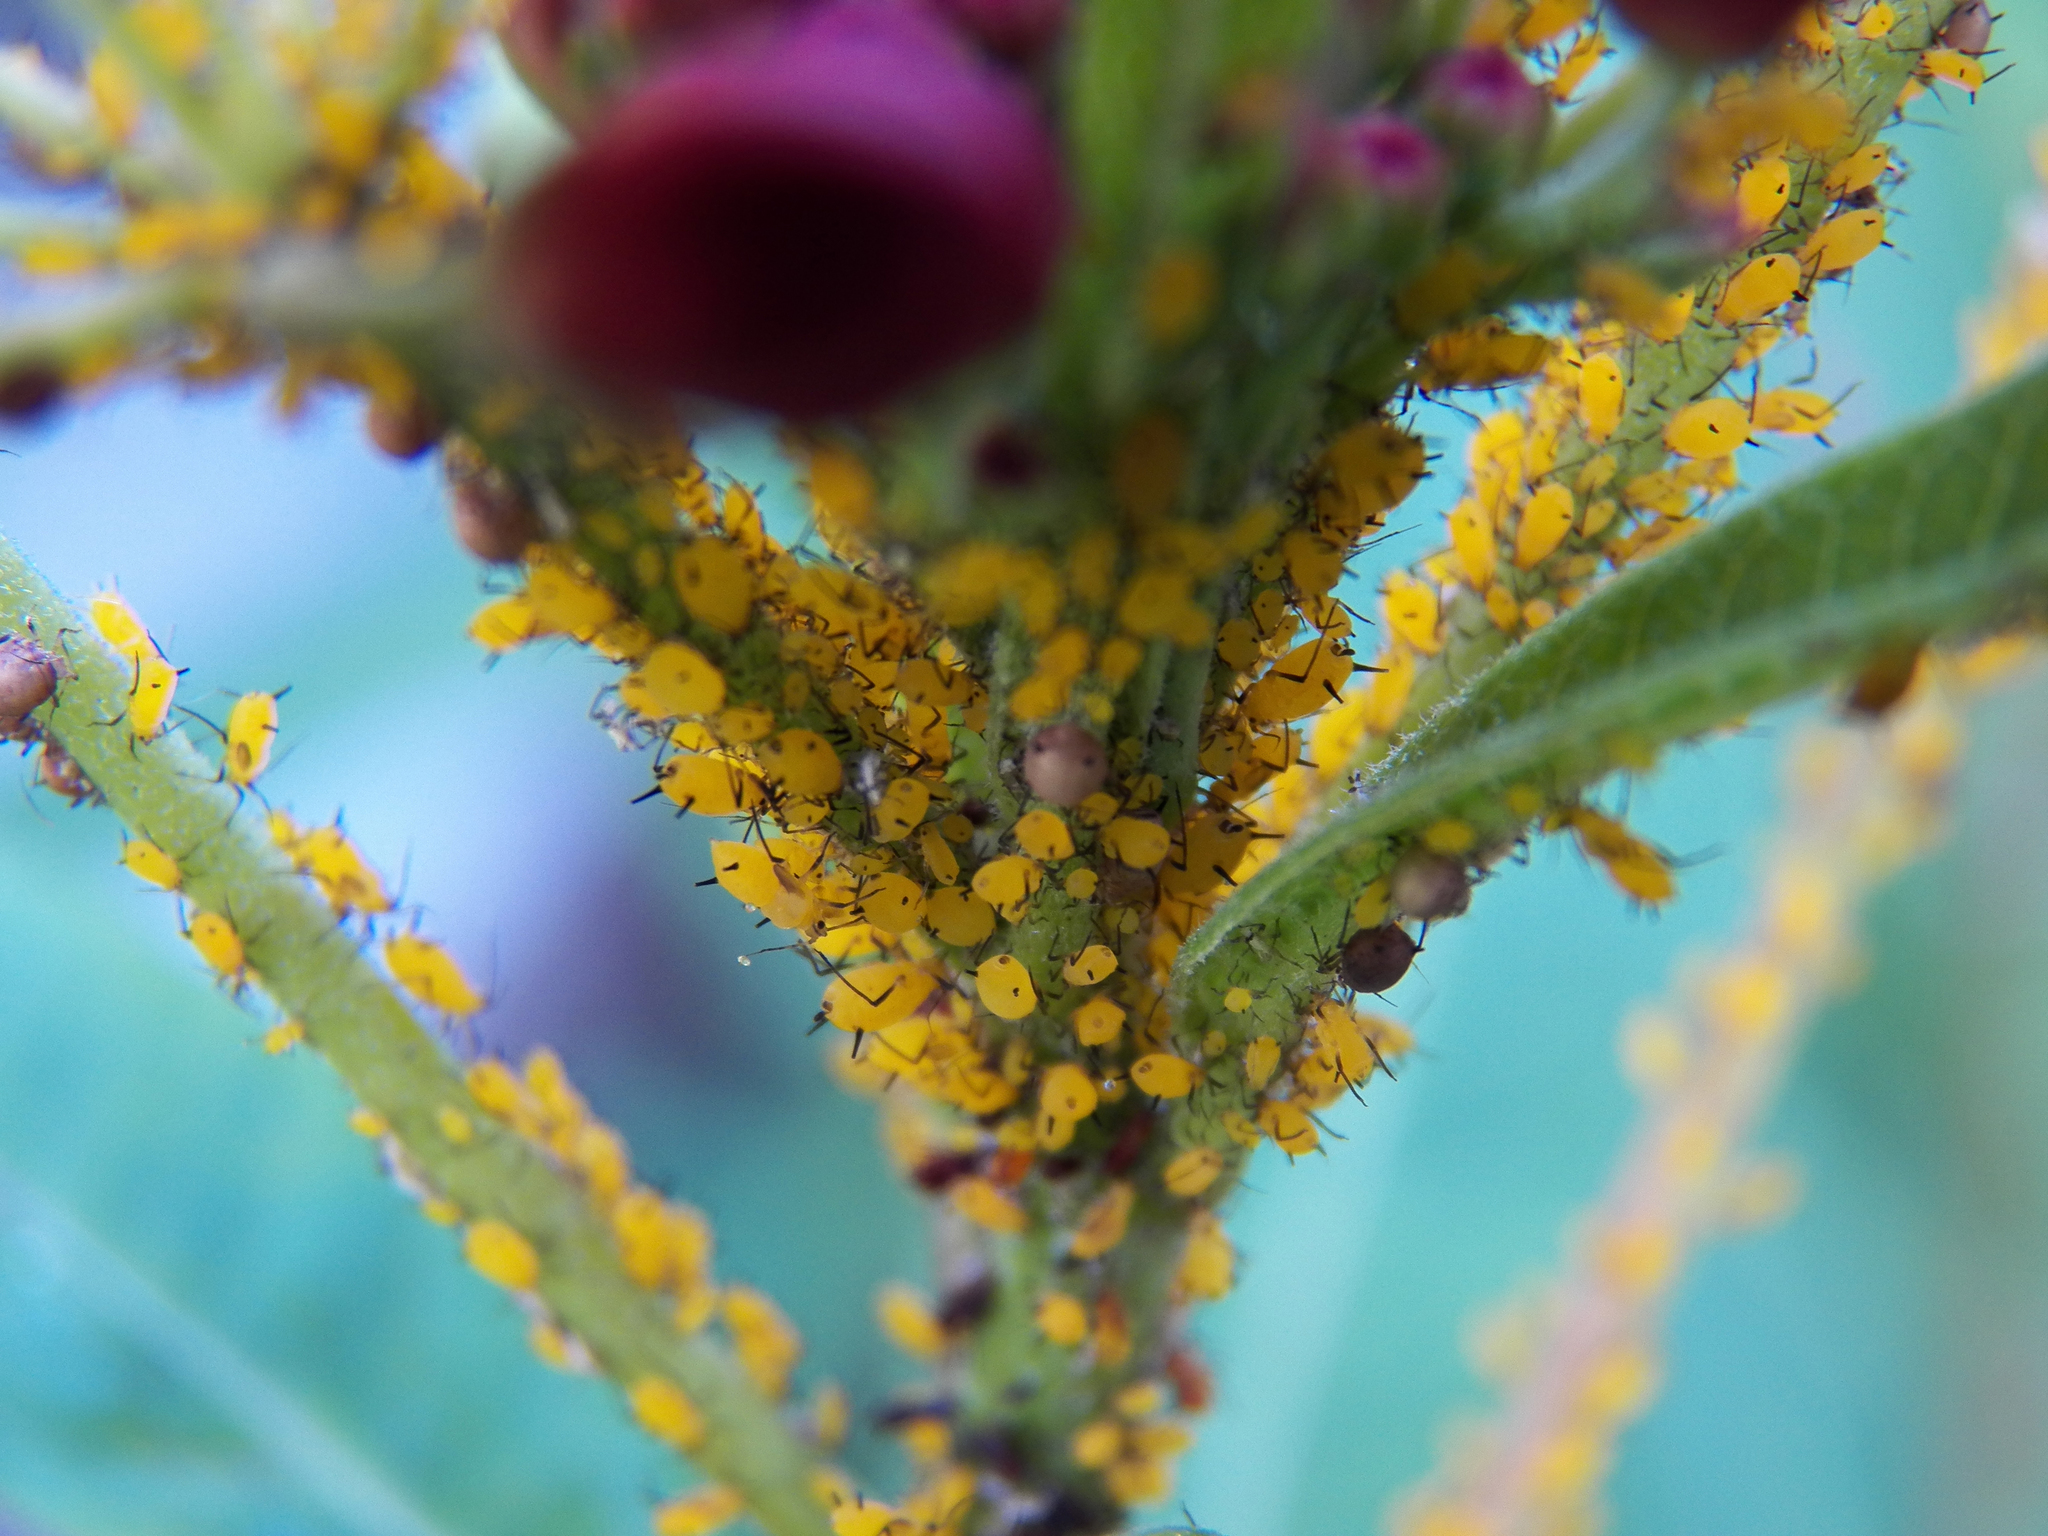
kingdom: Animalia
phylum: Arthropoda
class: Insecta
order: Hemiptera
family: Aphididae
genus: Aphis
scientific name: Aphis nerii
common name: Oleander aphid
